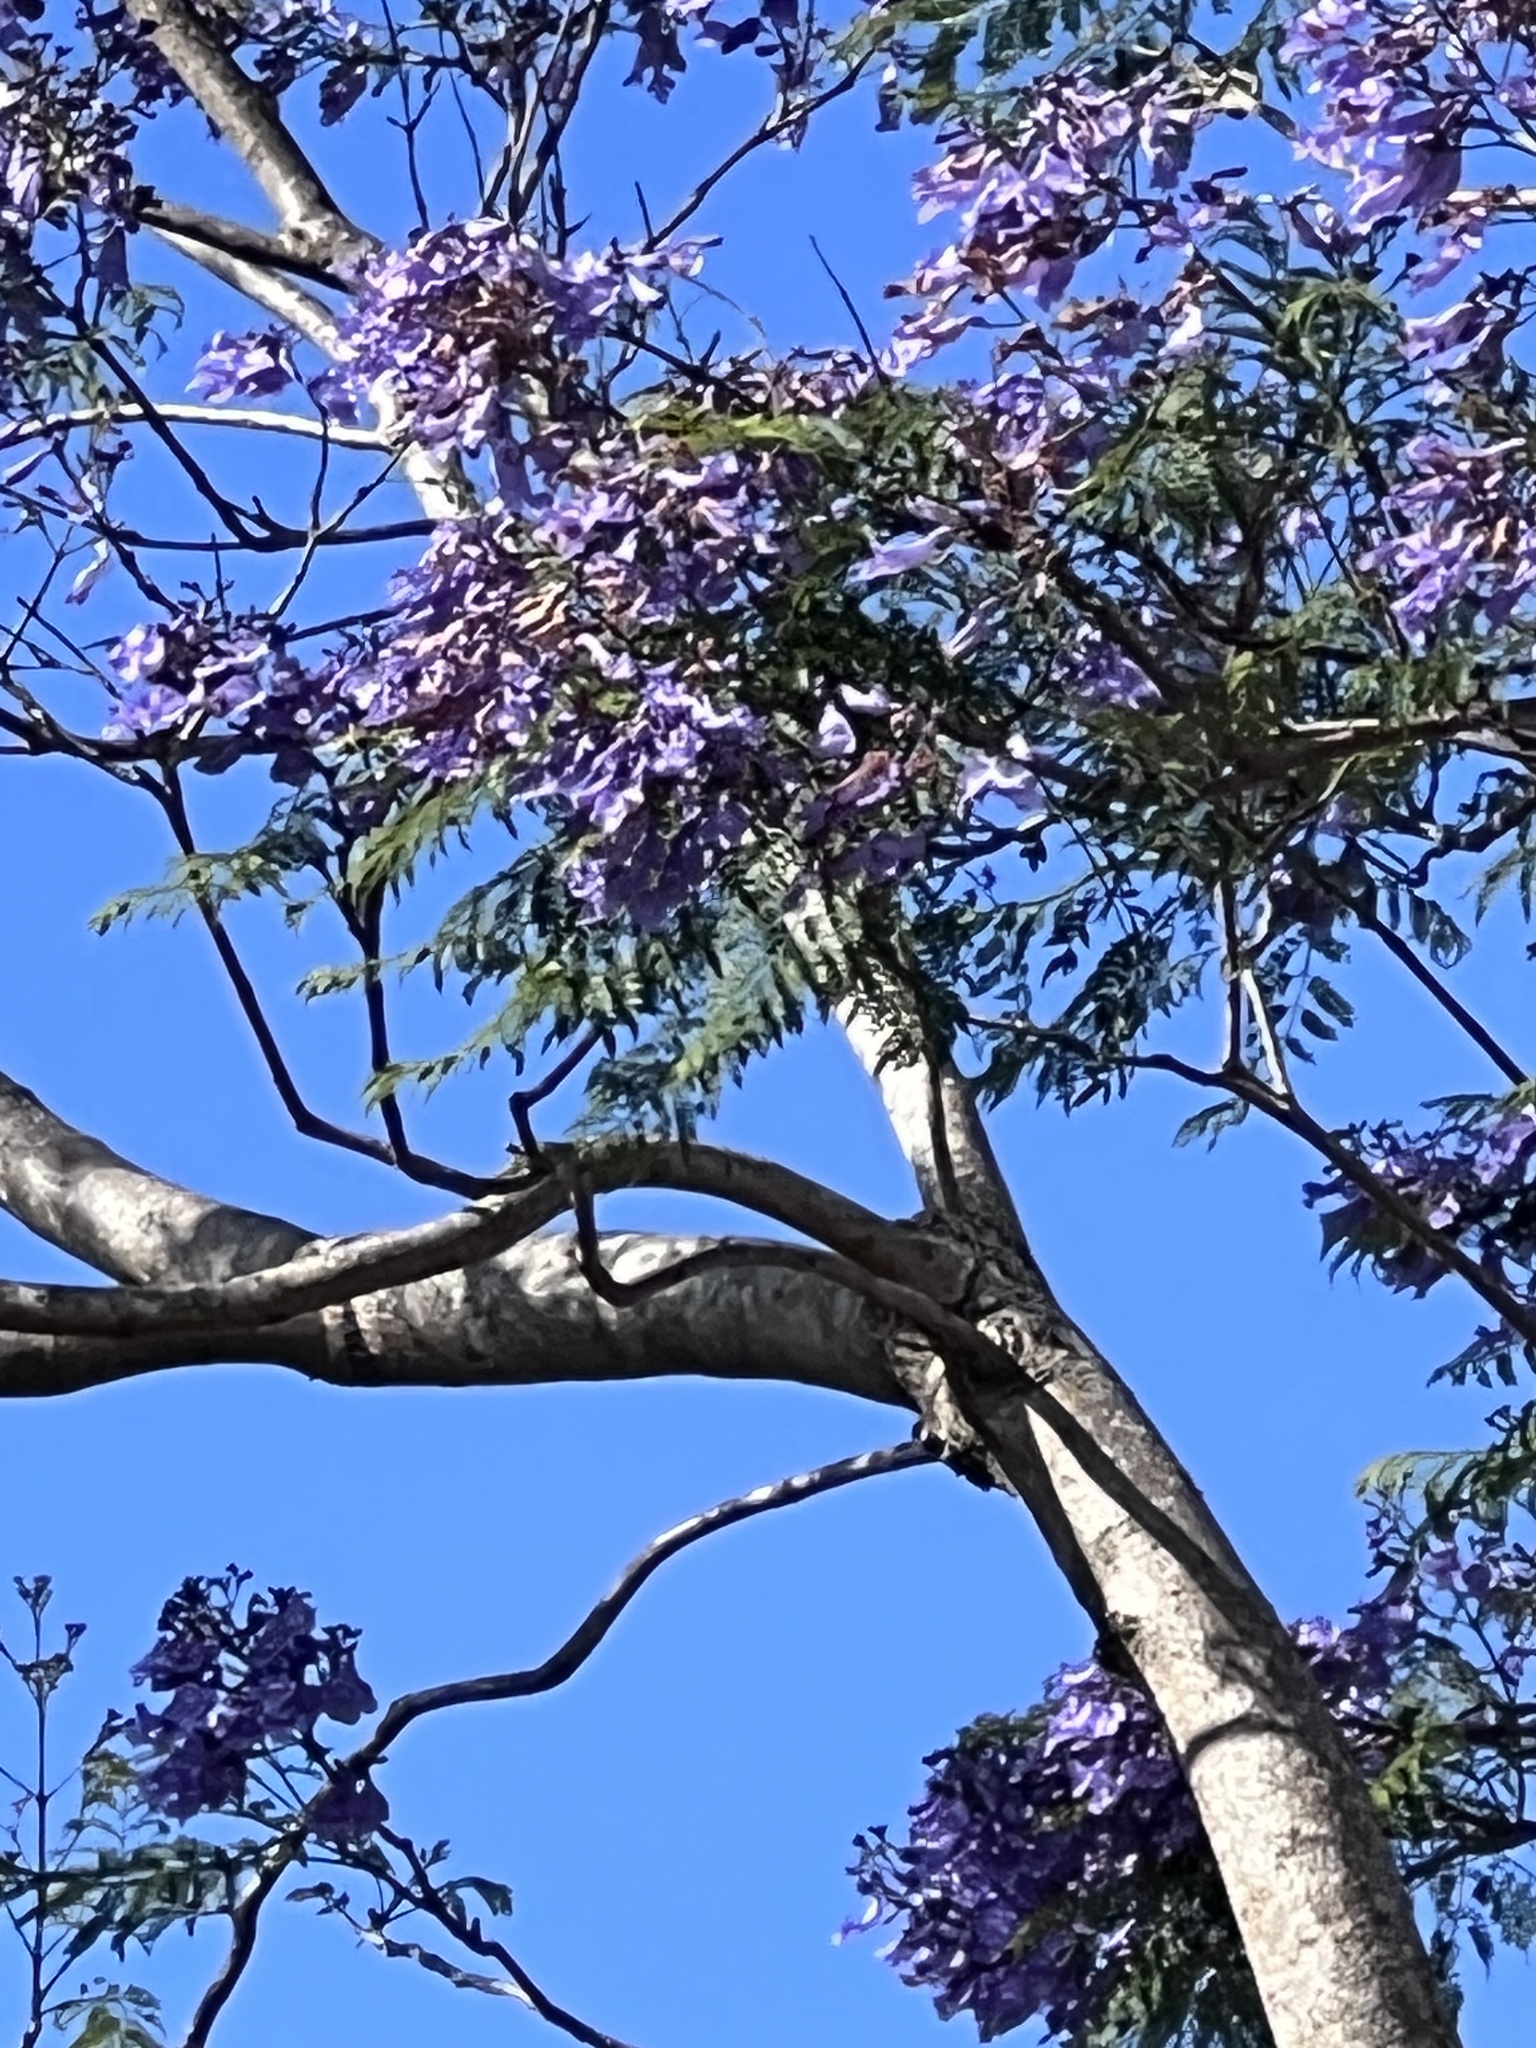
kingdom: Plantae
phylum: Tracheophyta
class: Magnoliopsida
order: Lamiales
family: Bignoniaceae
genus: Jacaranda
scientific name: Jacaranda mimosifolia
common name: Black poui
